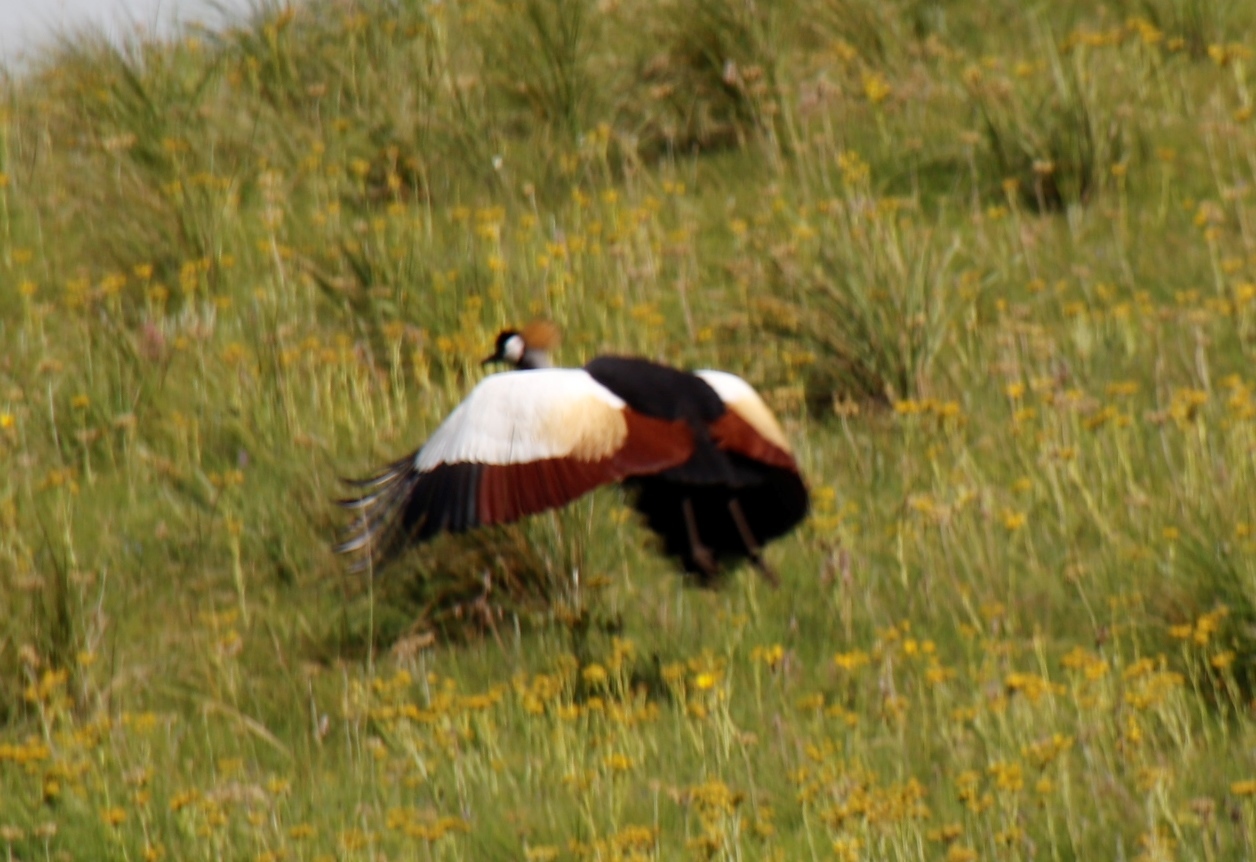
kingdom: Animalia
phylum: Chordata
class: Aves
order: Gruiformes
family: Gruidae
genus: Balearica
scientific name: Balearica regulorum
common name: Grey crowned crane
